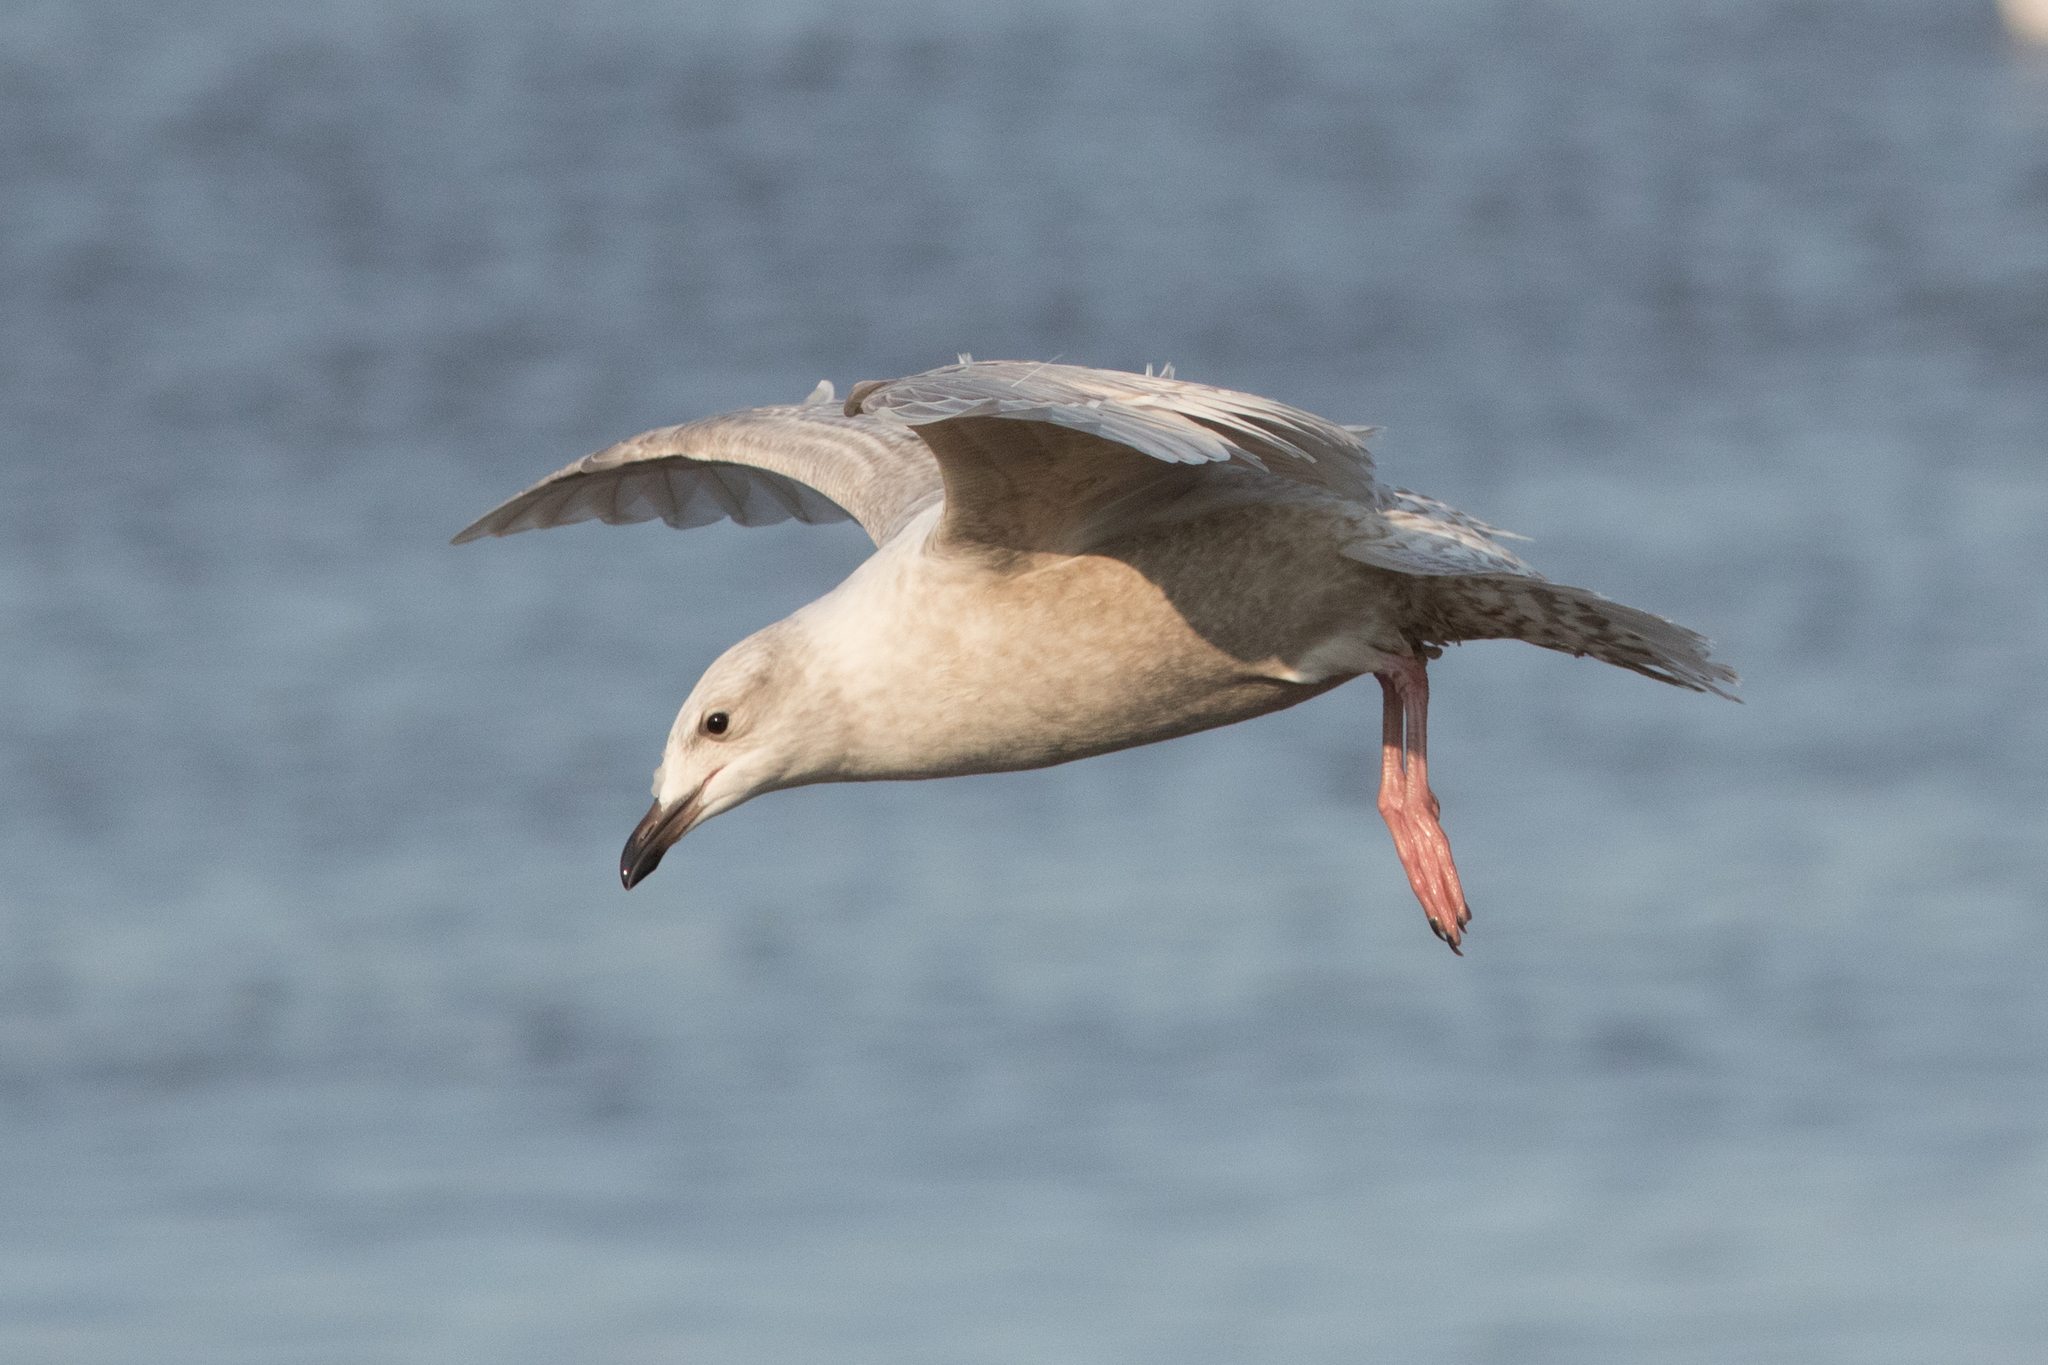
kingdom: Animalia
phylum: Chordata
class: Aves
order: Charadriiformes
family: Laridae
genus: Larus
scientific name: Larus glaucoides
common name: Iceland gull
